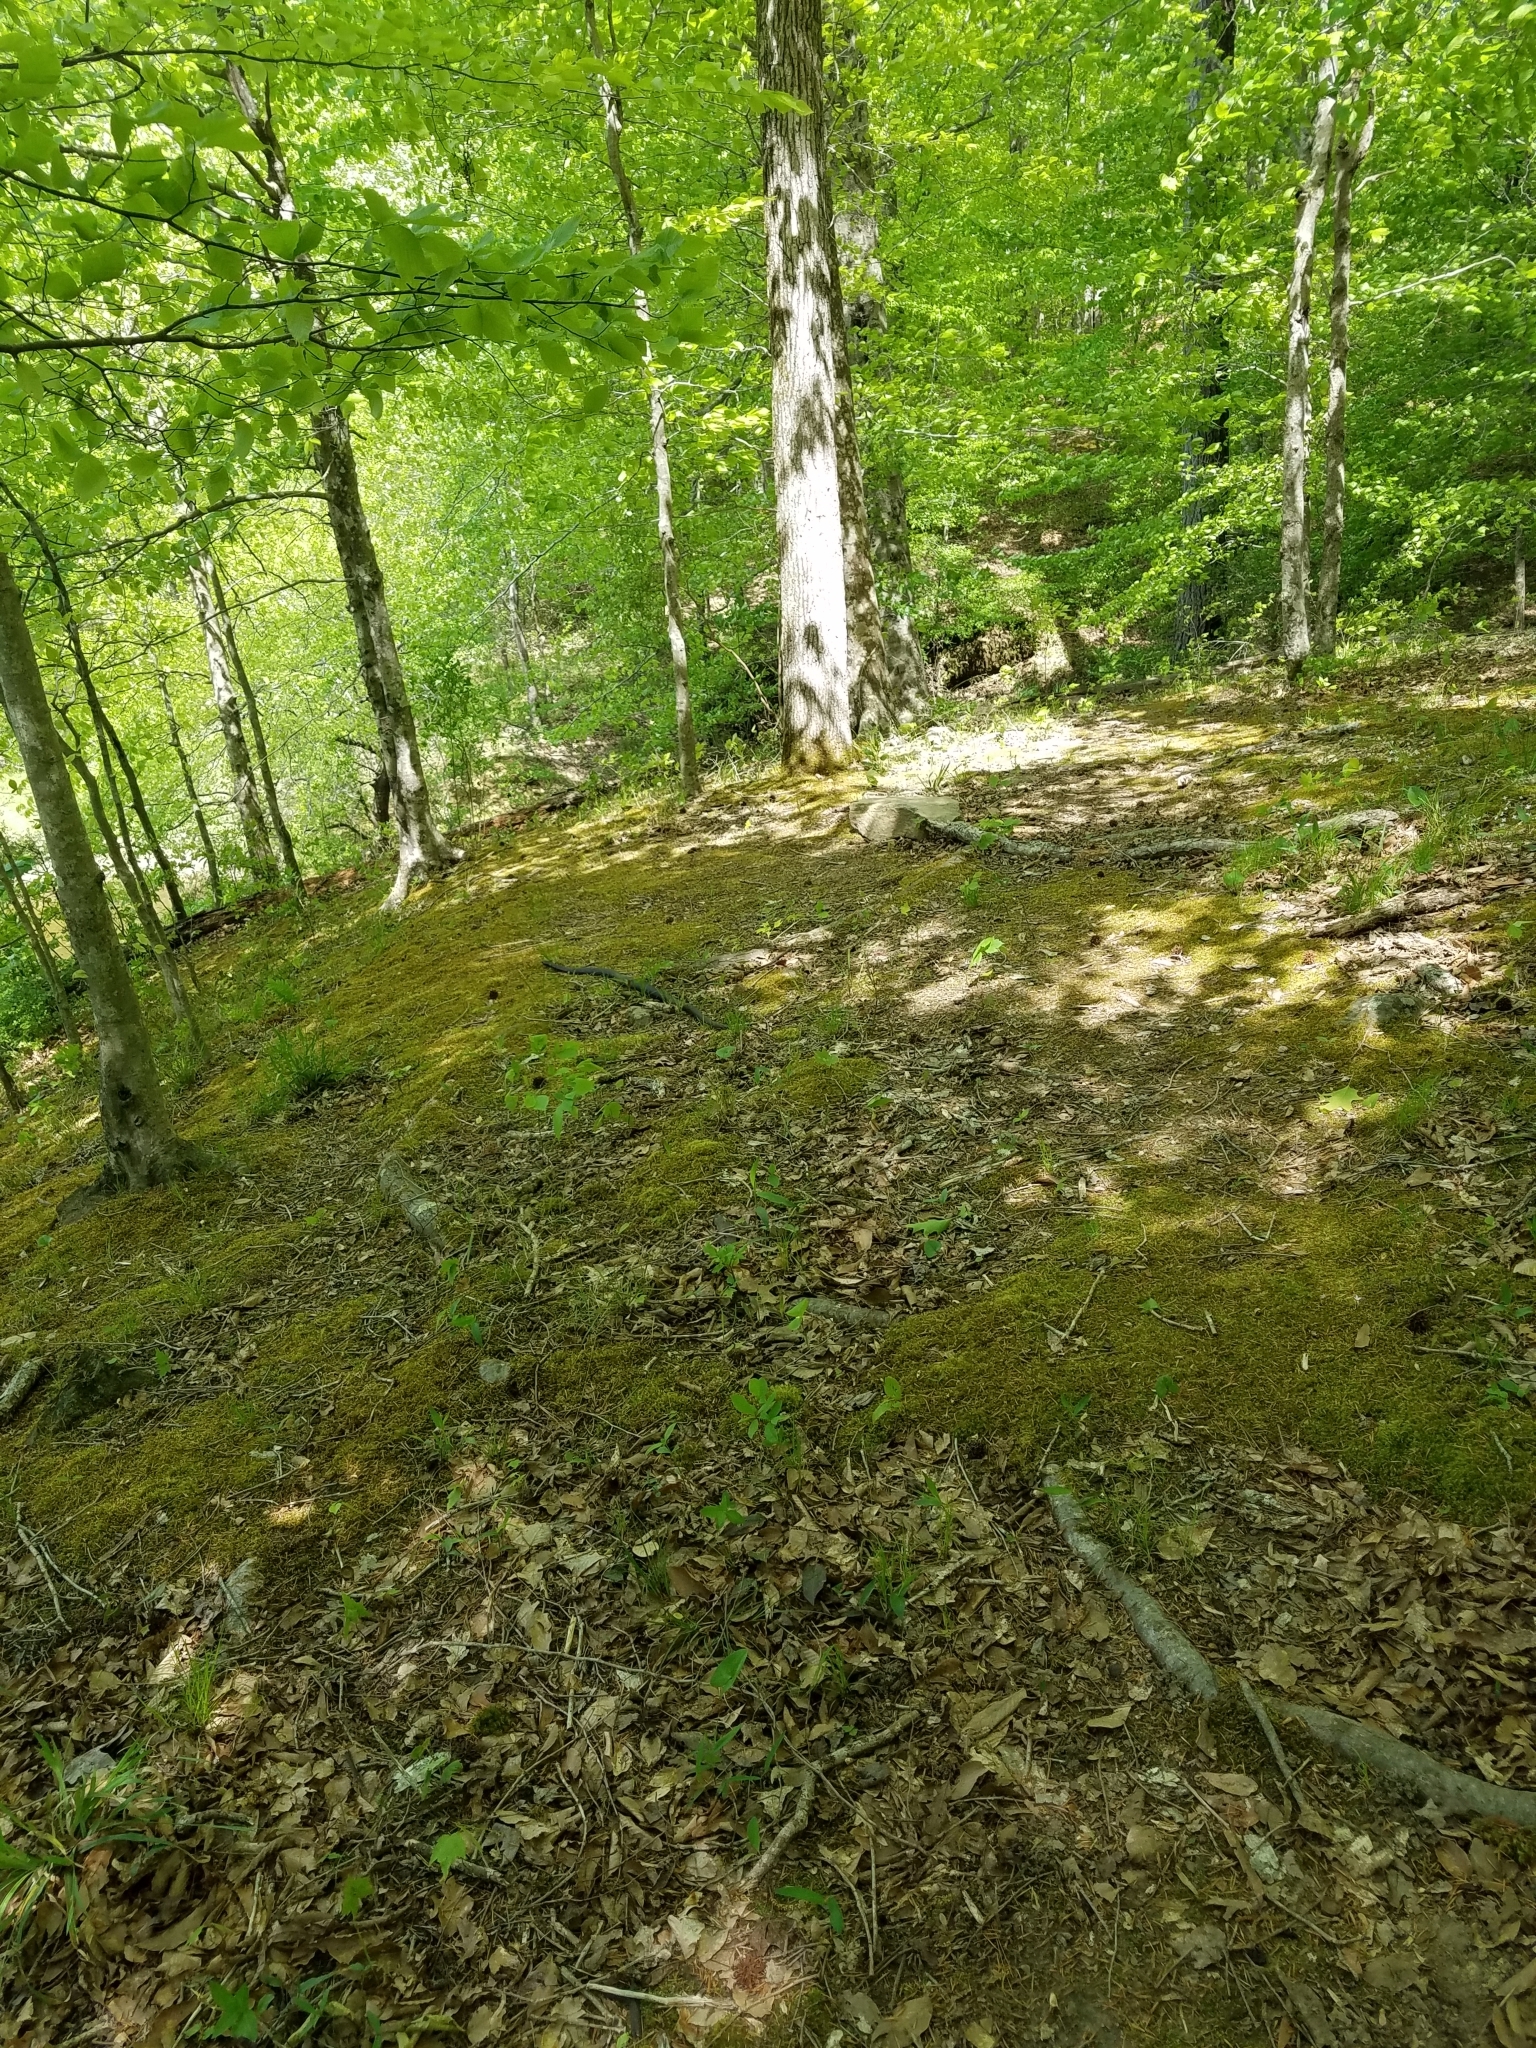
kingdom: Animalia
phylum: Chordata
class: Squamata
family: Colubridae
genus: Coluber
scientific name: Coluber constrictor
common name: Eastern racer
